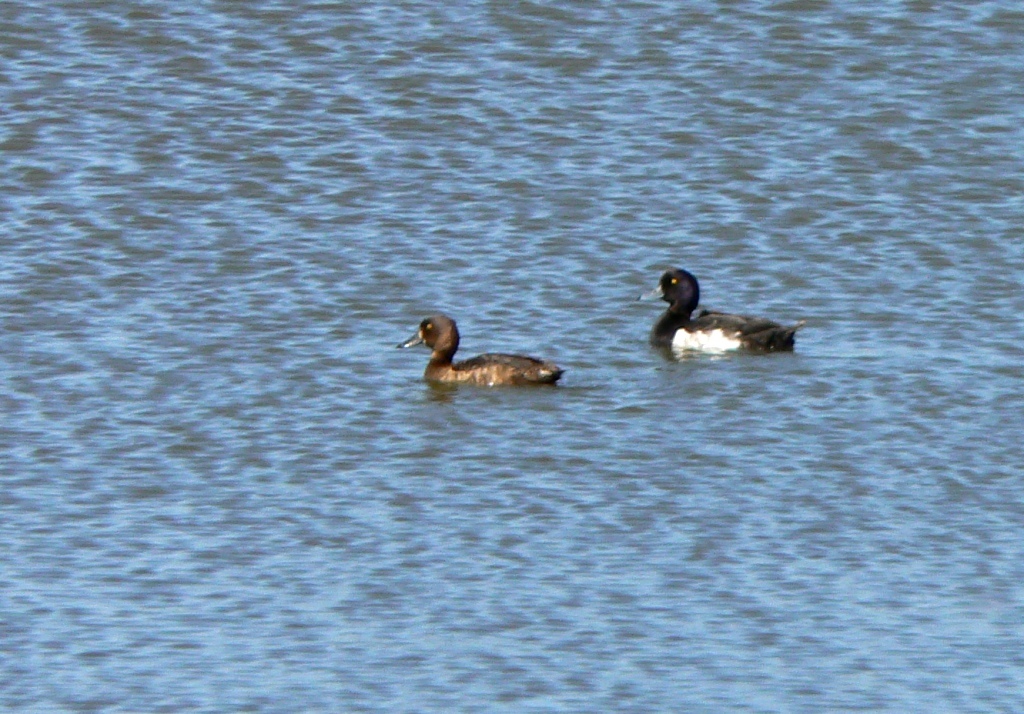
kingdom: Animalia
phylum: Chordata
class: Aves
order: Anseriformes
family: Anatidae
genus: Aythya
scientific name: Aythya fuligula
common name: Tufted duck
